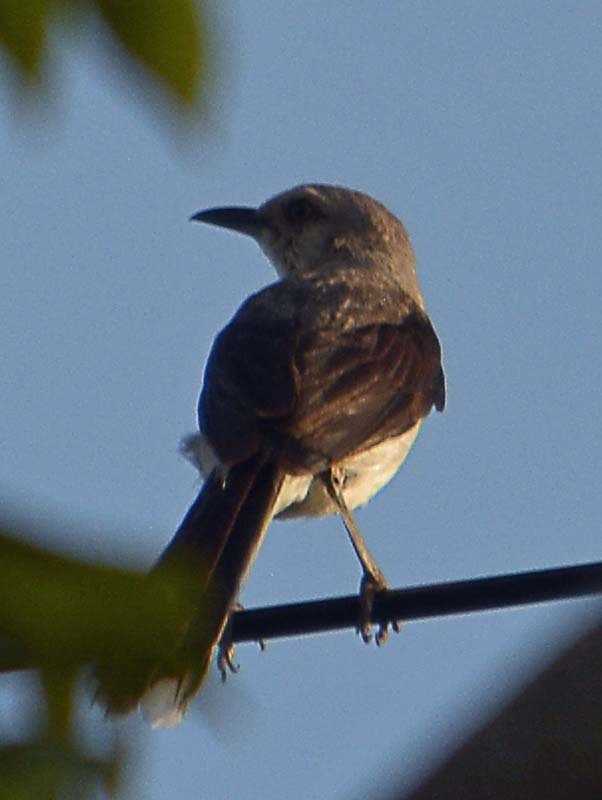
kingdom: Animalia
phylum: Chordata
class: Aves
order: Passeriformes
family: Mimidae
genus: Mimus
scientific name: Mimus gilvus
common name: Tropical mockingbird
